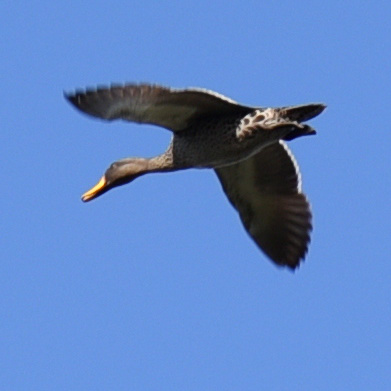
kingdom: Animalia
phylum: Chordata
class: Aves
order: Anseriformes
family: Anatidae
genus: Anas
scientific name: Anas undulata
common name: Yellow-billed duck
